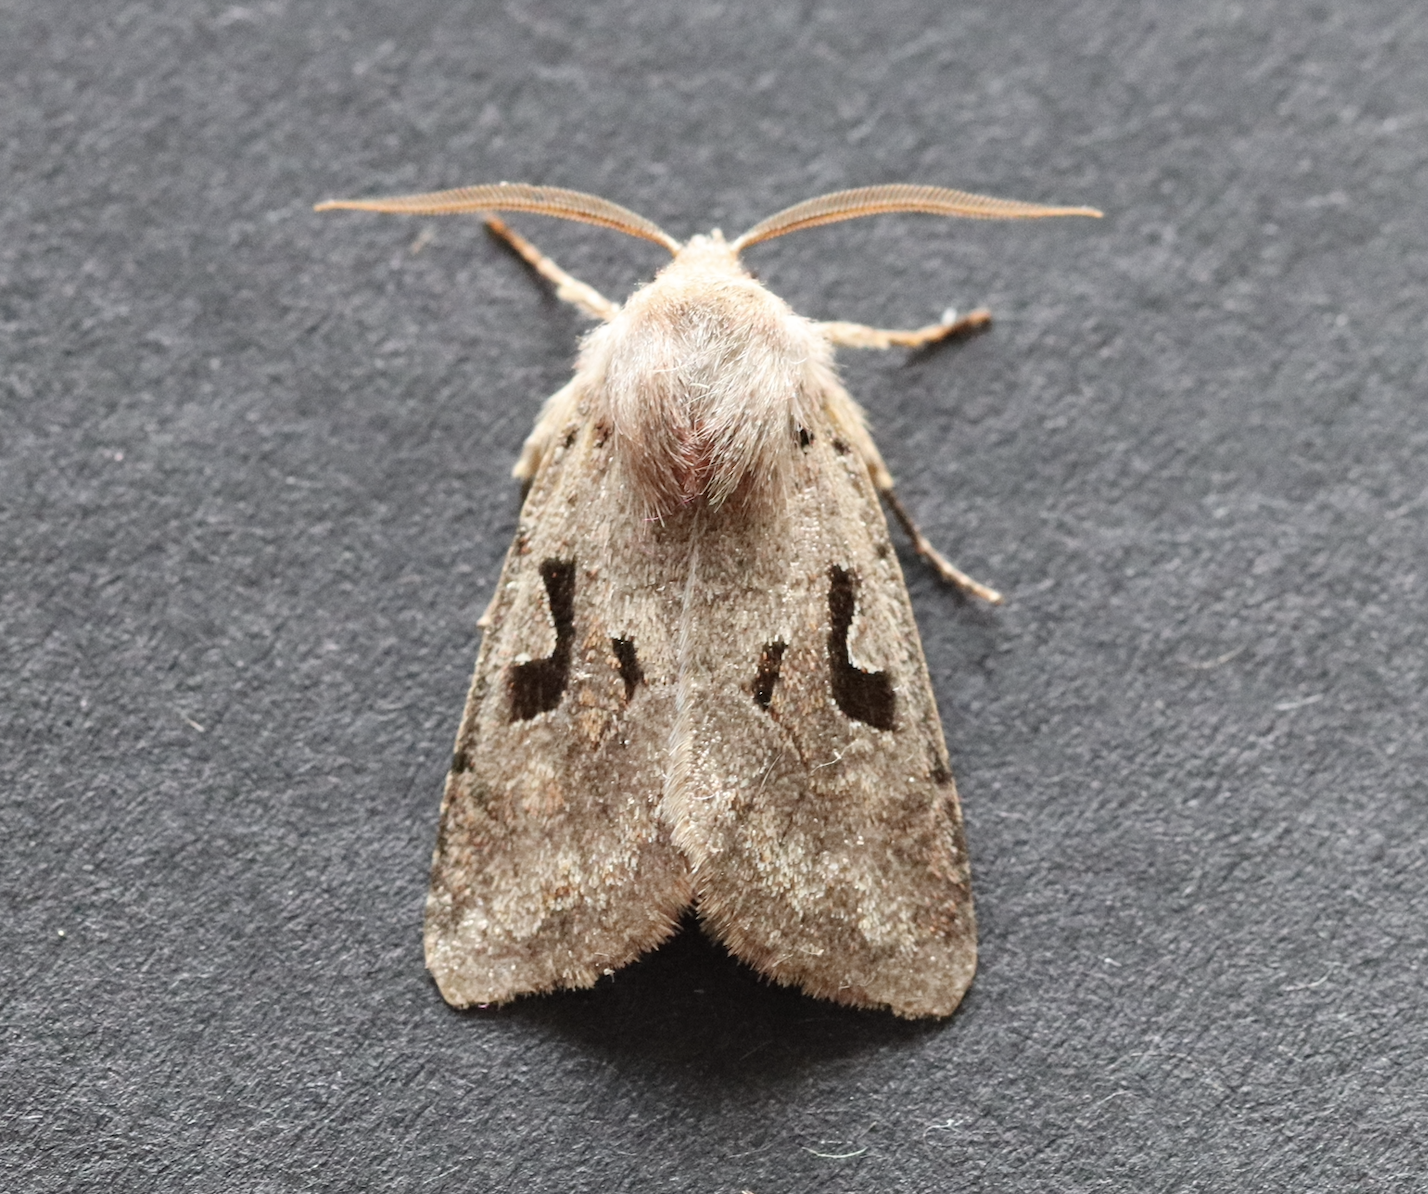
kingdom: Animalia
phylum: Arthropoda
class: Insecta
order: Lepidoptera
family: Noctuidae
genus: Orthosia
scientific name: Orthosia gothica
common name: Hebrew character
